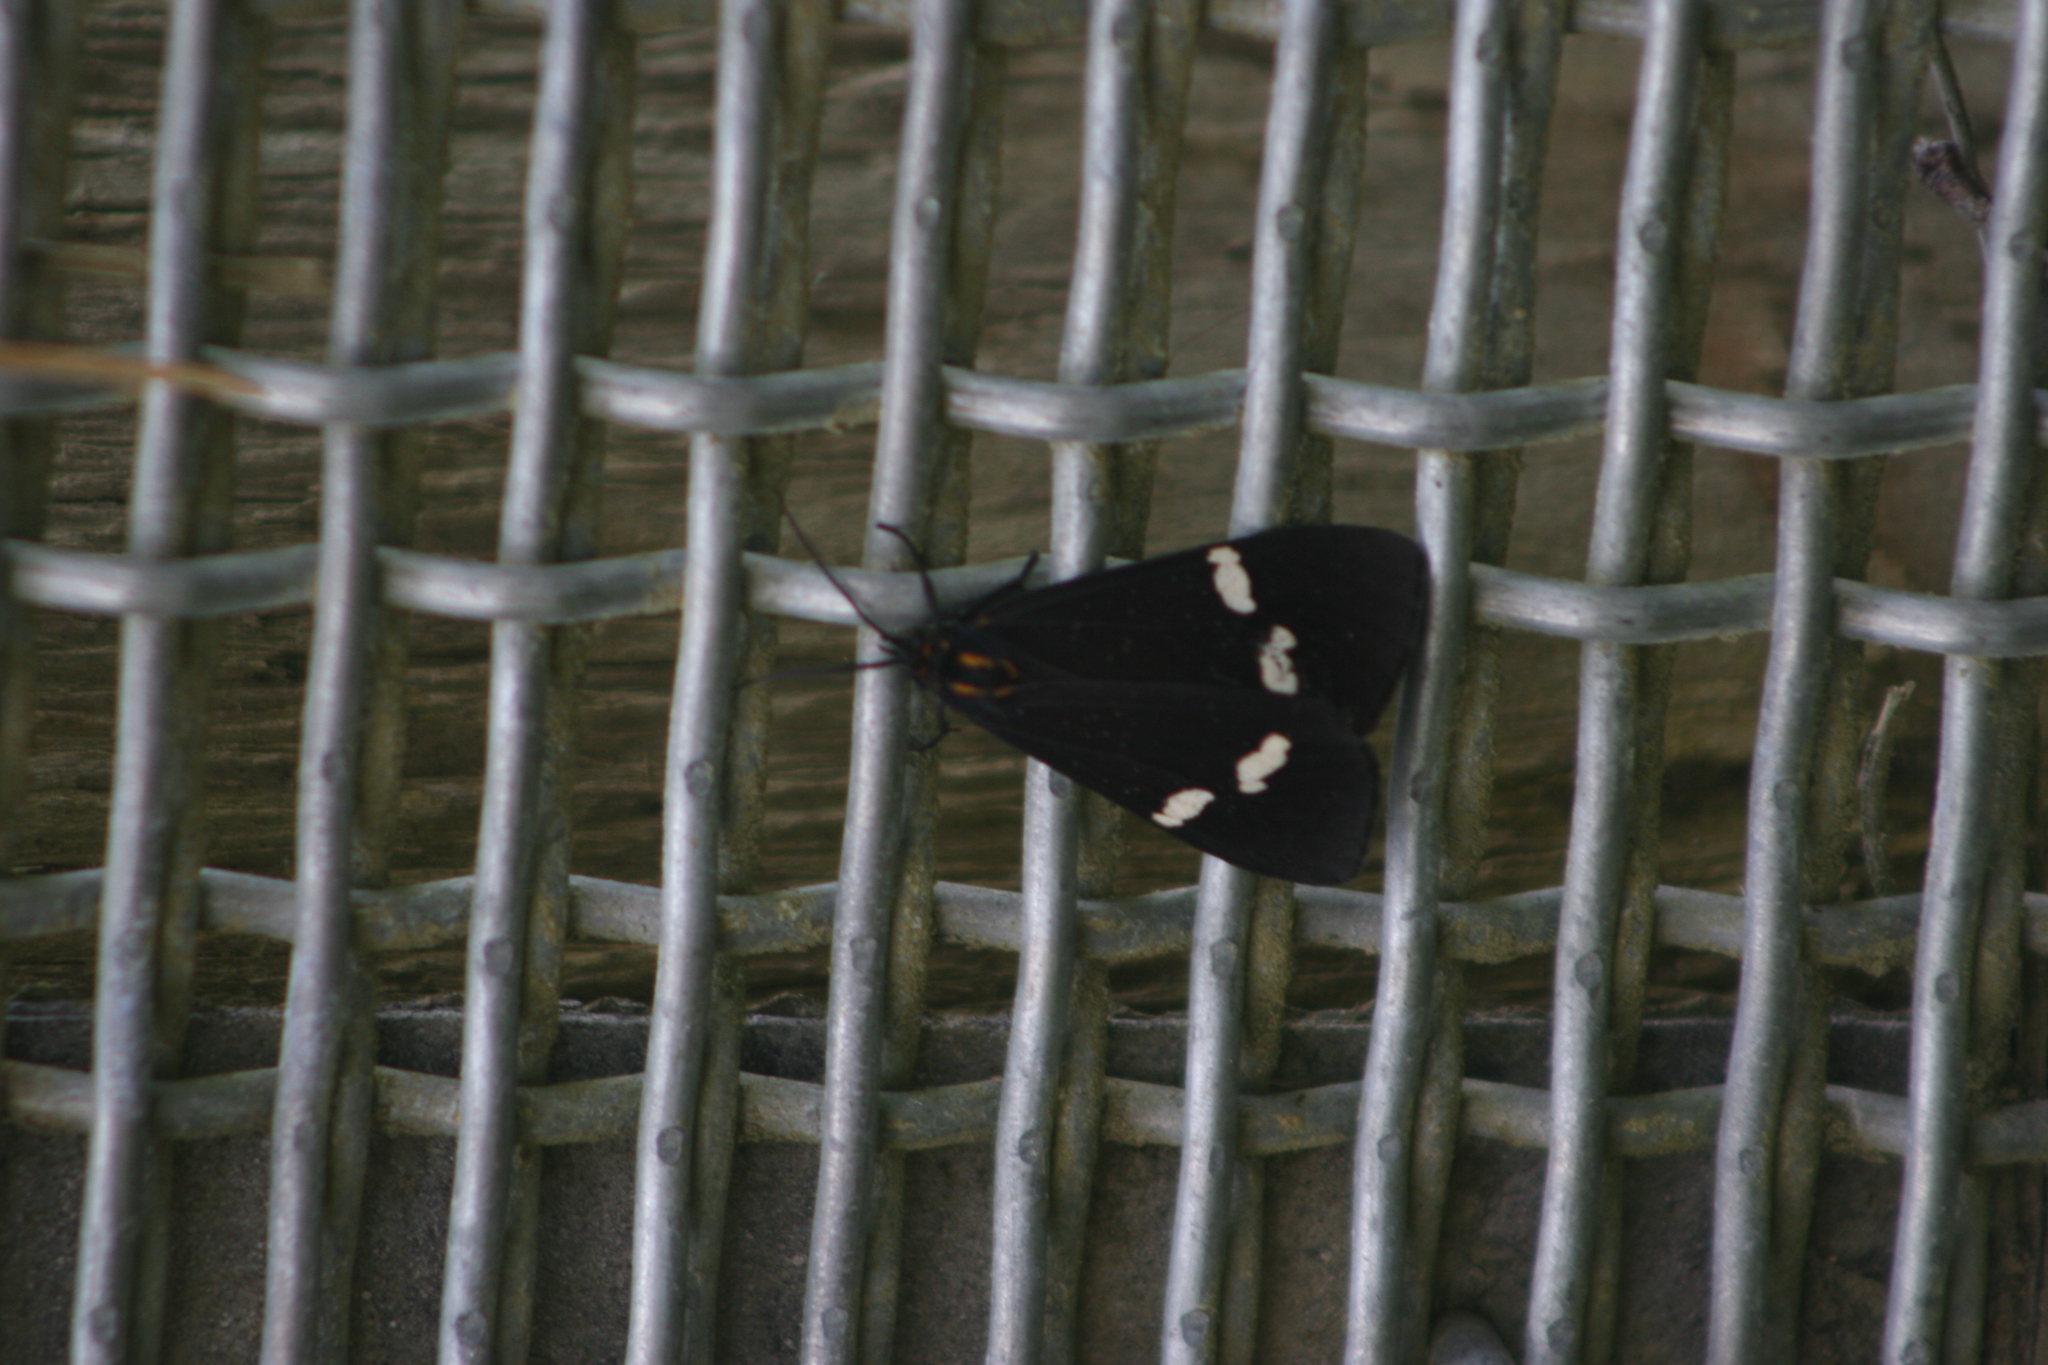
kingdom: Animalia
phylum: Arthropoda
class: Insecta
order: Lepidoptera
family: Erebidae
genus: Nyctemera
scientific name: Nyctemera annulatum
